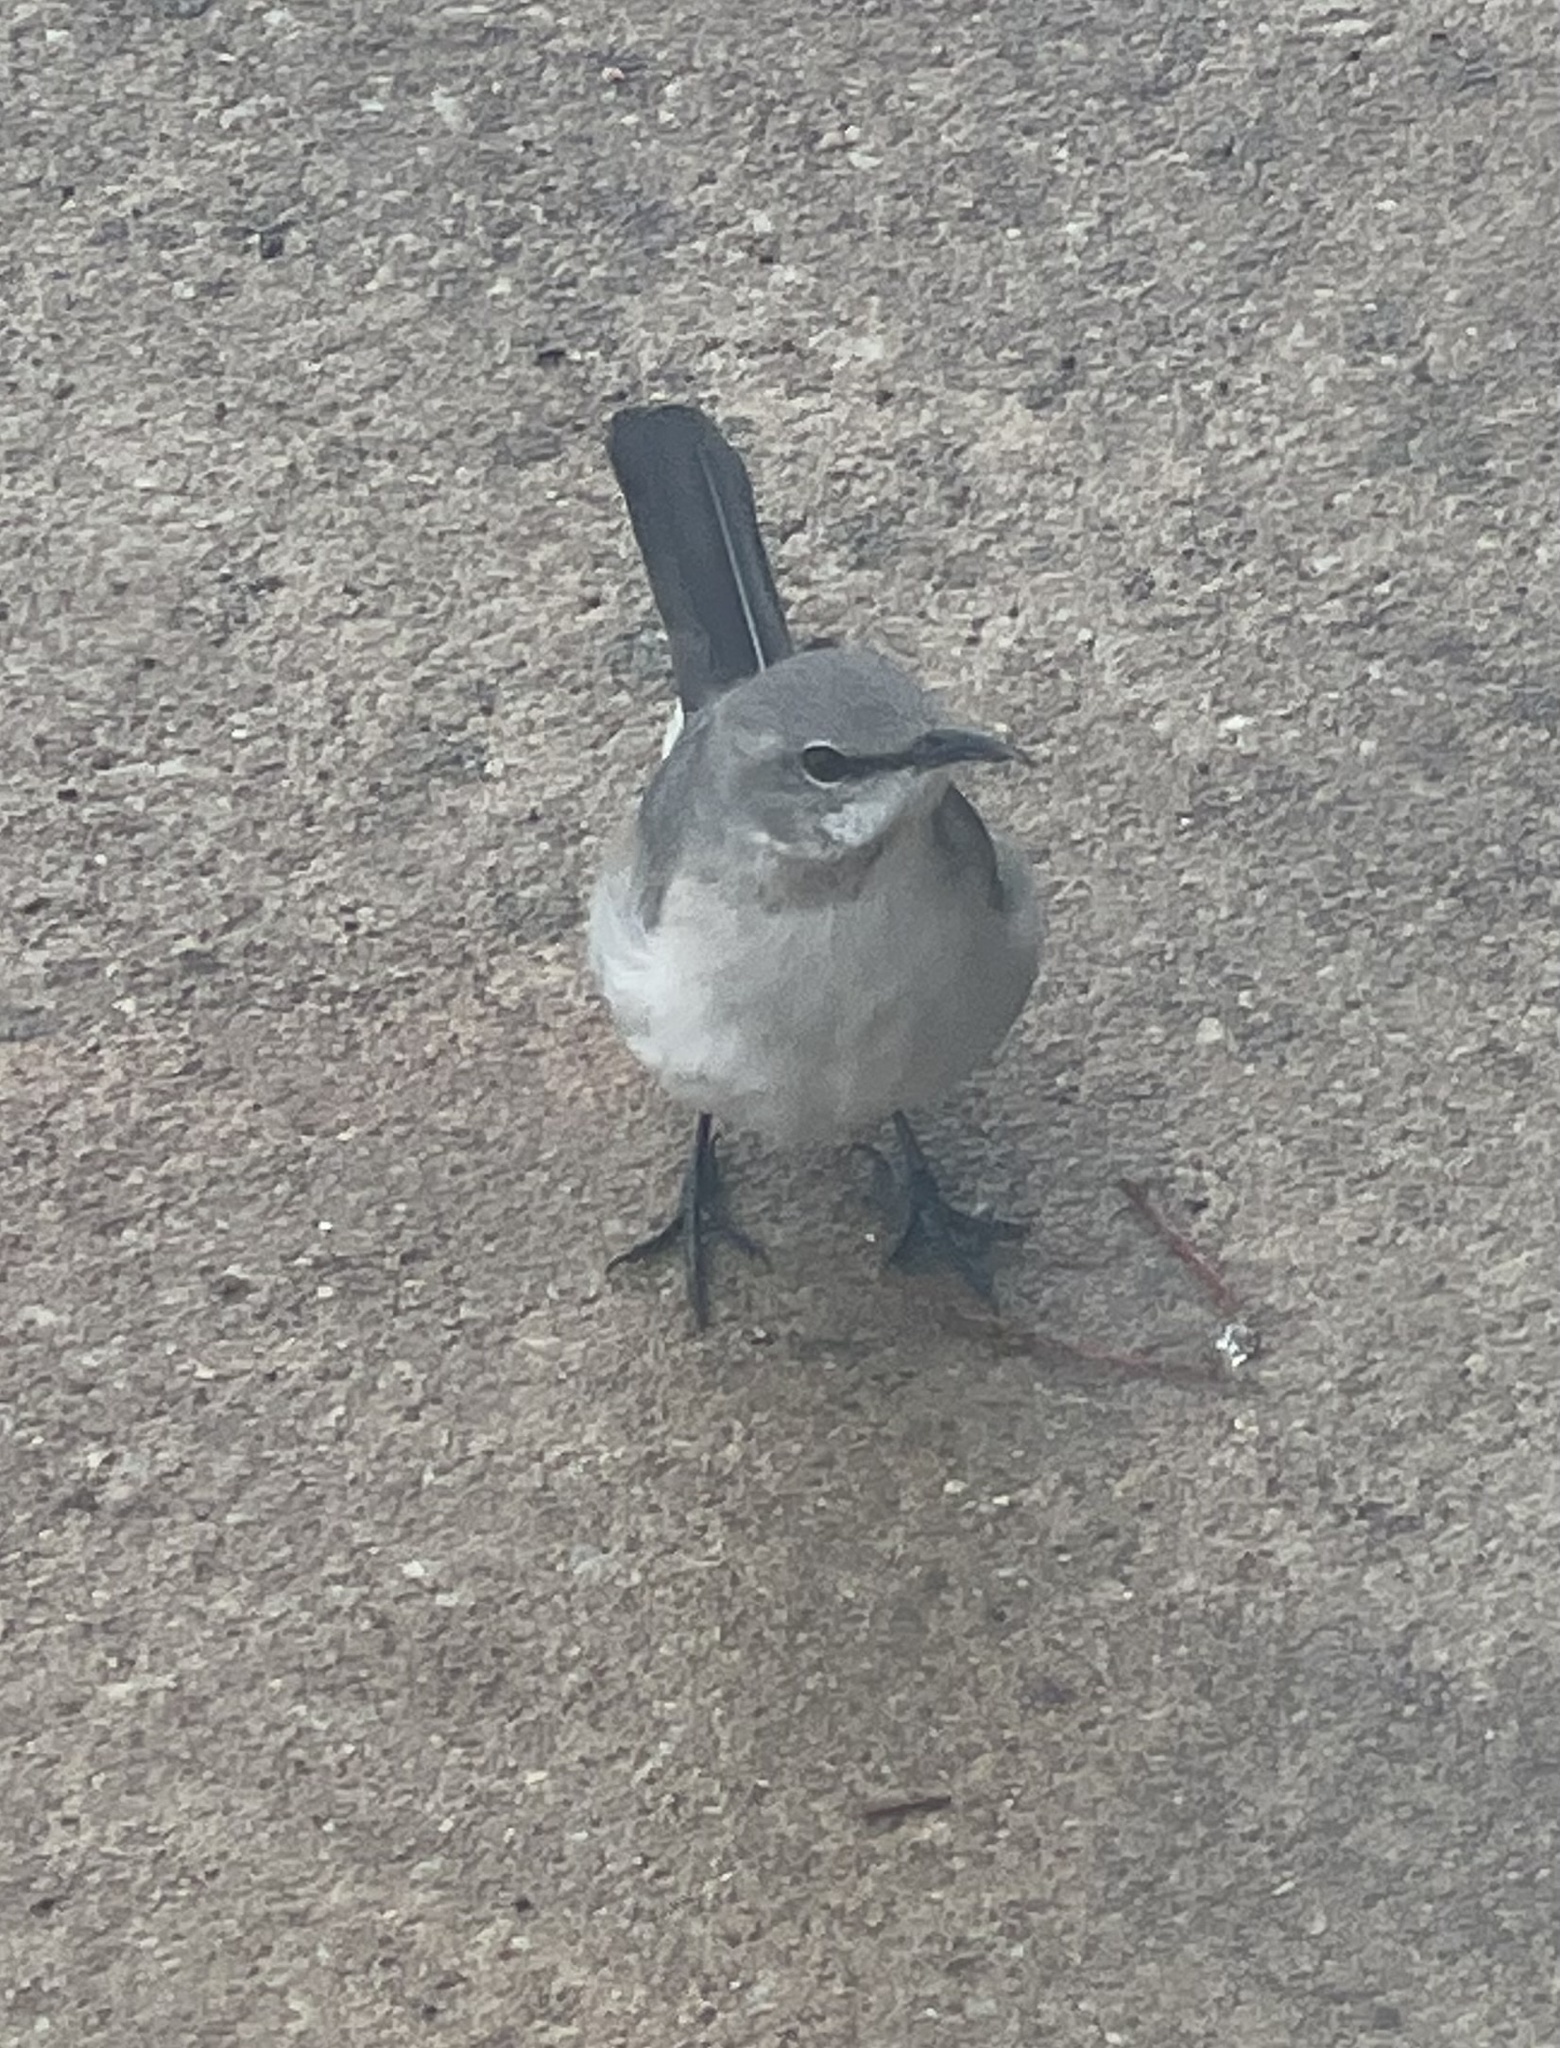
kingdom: Animalia
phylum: Chordata
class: Aves
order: Passeriformes
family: Mimidae
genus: Mimus
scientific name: Mimus polyglottos
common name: Northern mockingbird
